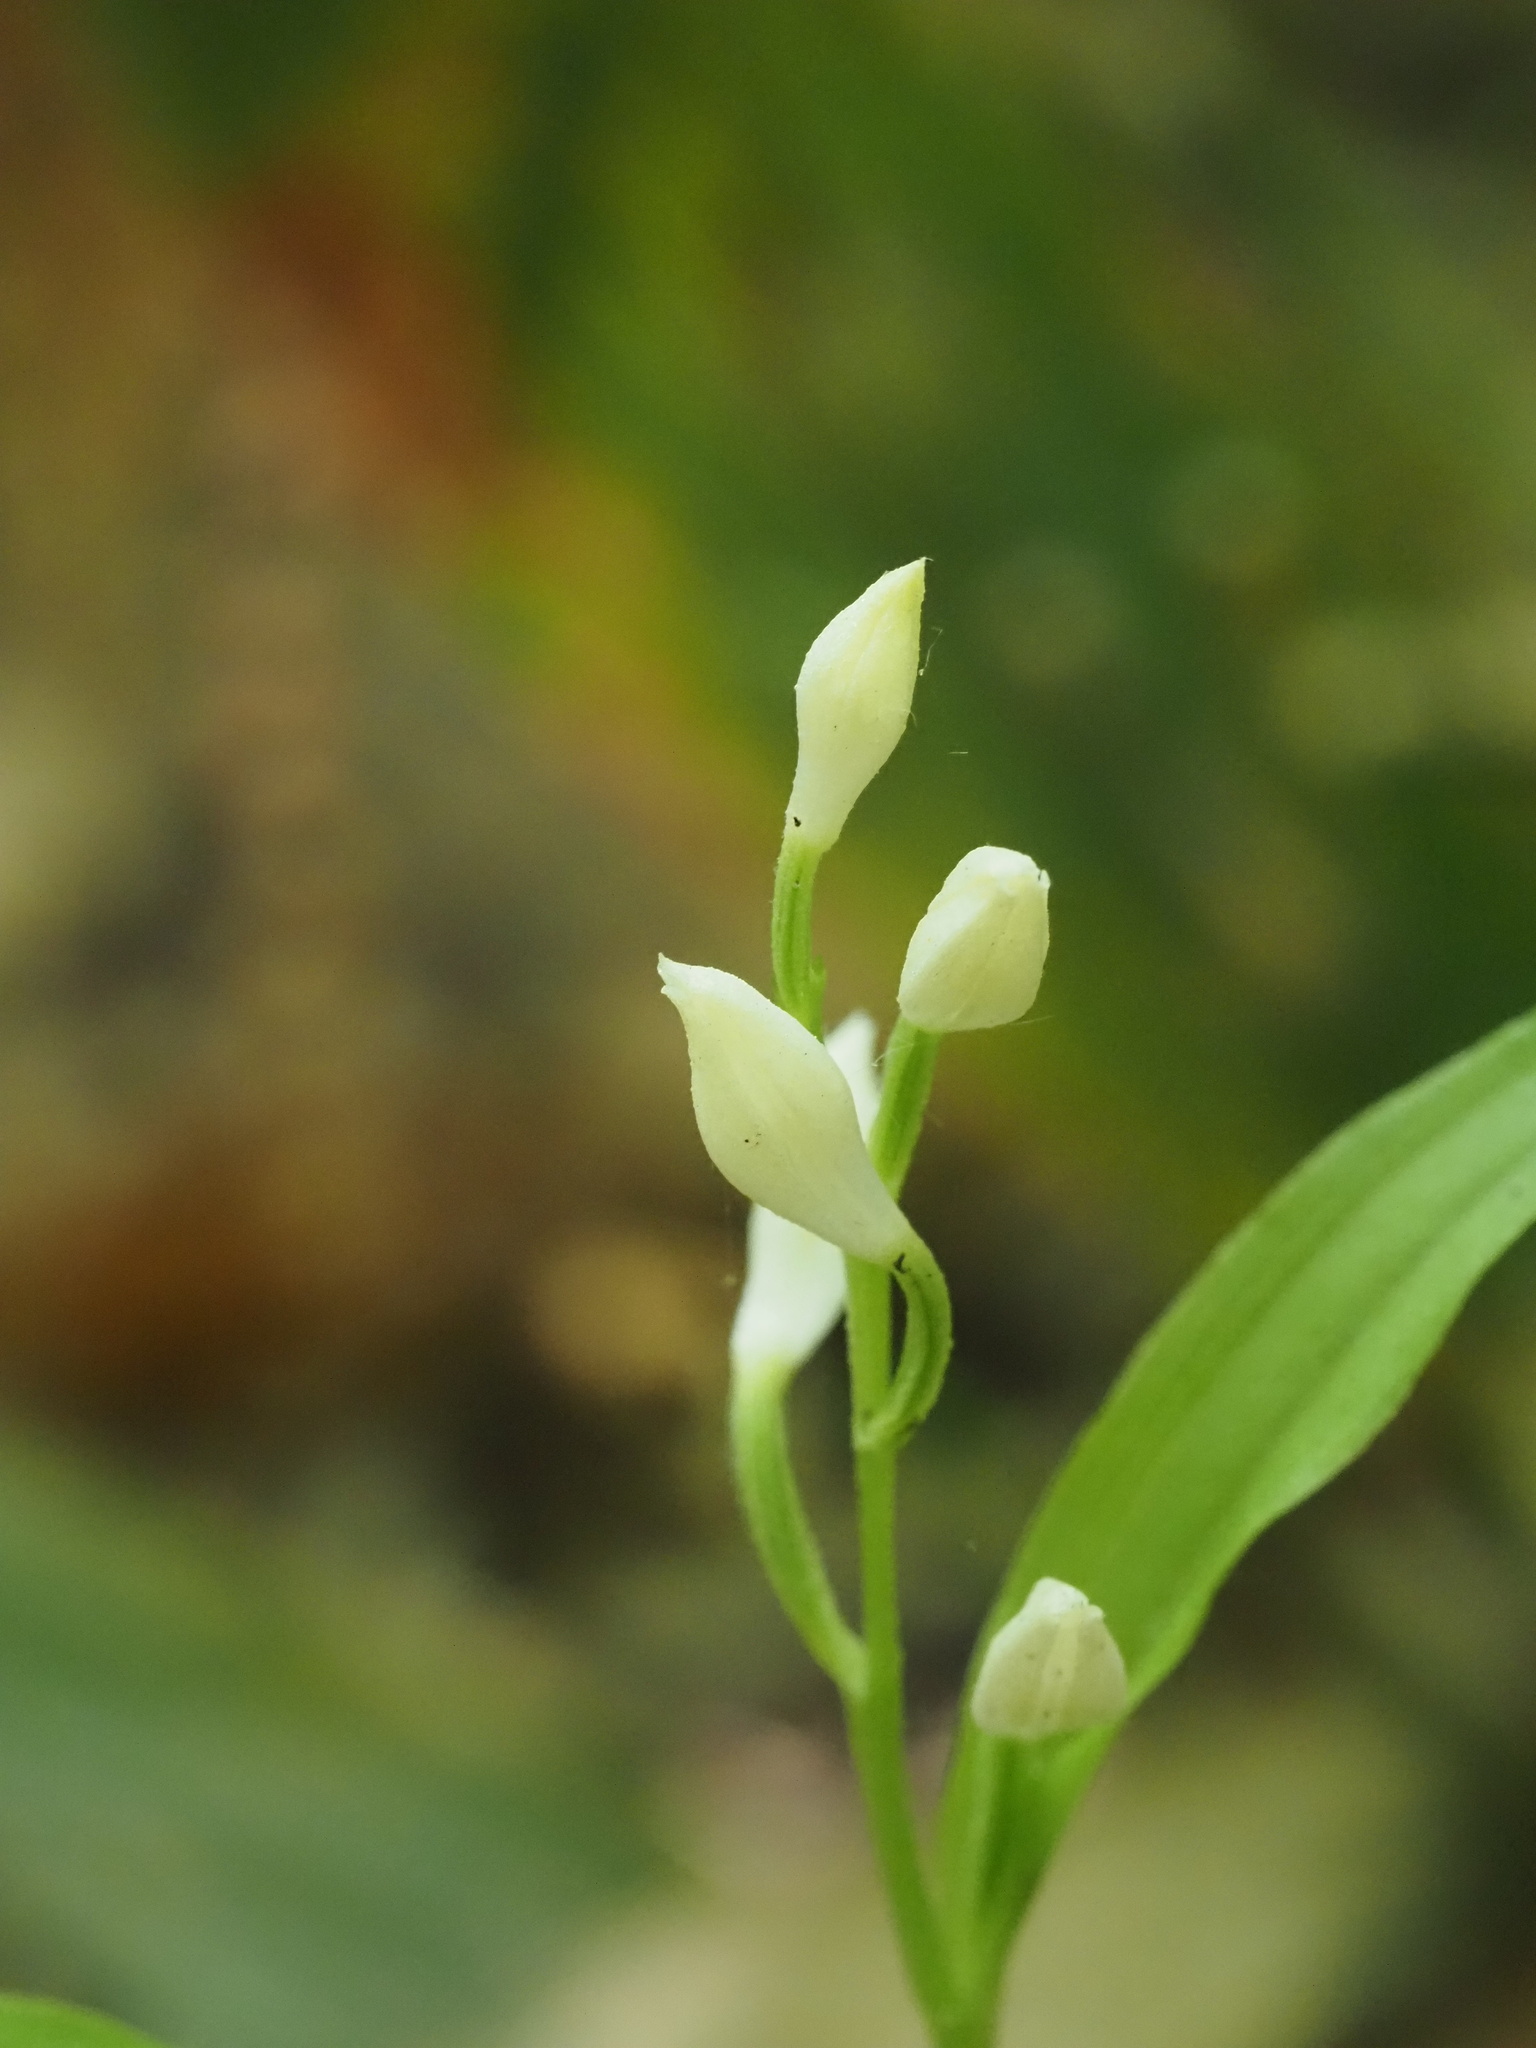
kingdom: Plantae
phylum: Tracheophyta
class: Liliopsida
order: Asparagales
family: Orchidaceae
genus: Cephalanthera
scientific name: Cephalanthera longifolia
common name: Narrow-leaved helleborine
